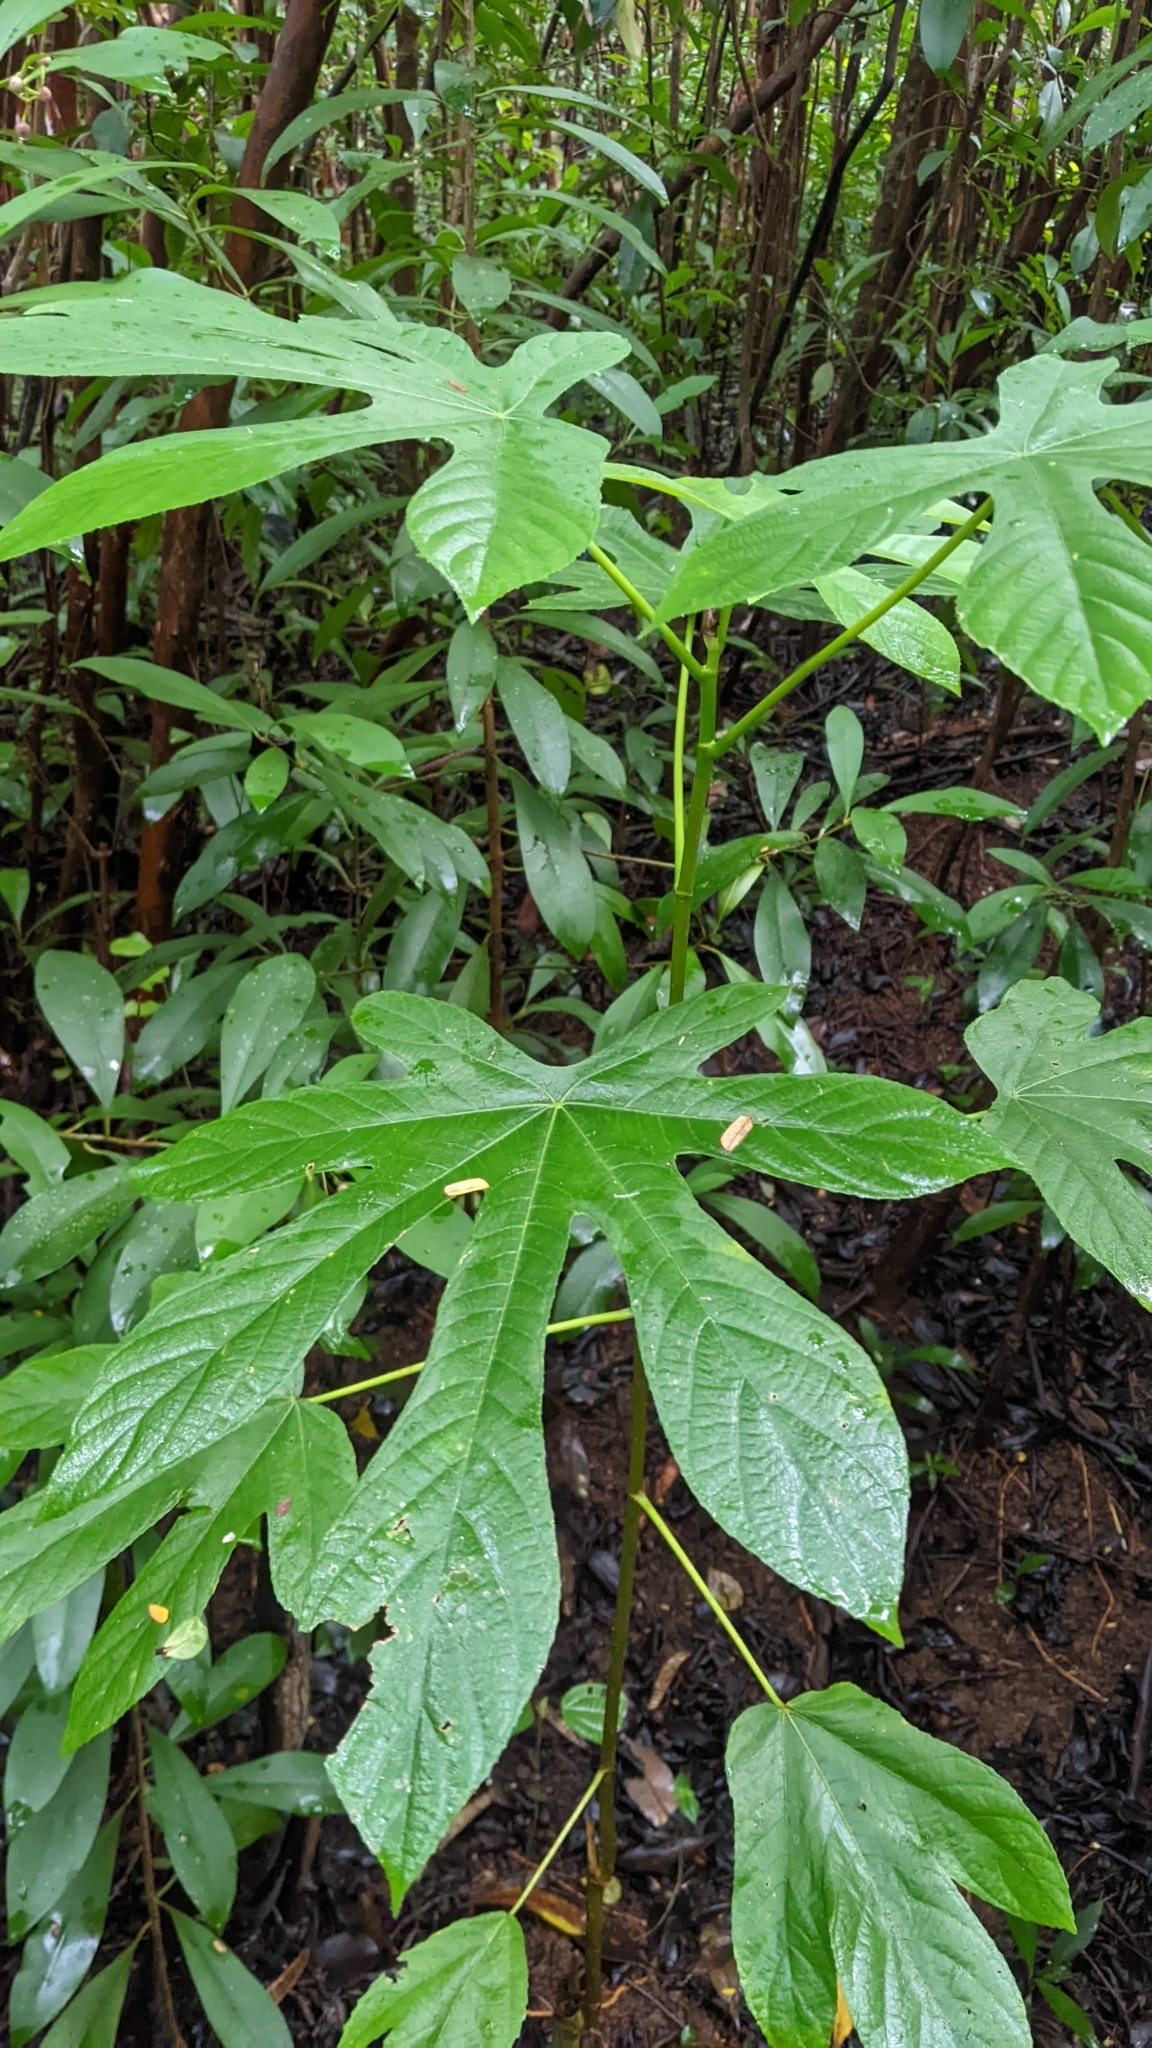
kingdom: Plantae
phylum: Tracheophyta
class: Magnoliopsida
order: Rosales
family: Urticaceae
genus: Cecropia
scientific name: Cecropia obtusifolia
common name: Trumpet tree
